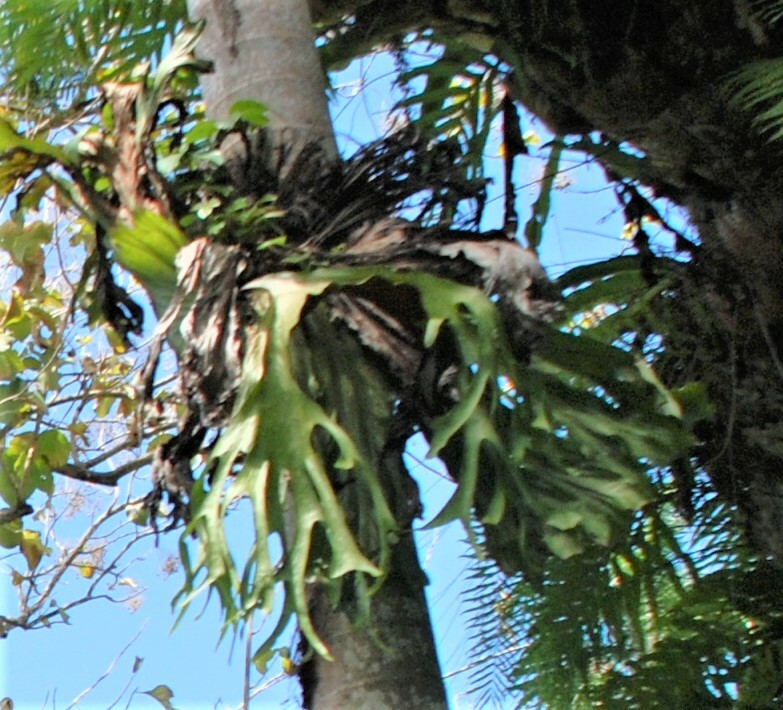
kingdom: Plantae
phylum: Tracheophyta
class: Polypodiopsida
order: Polypodiales
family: Polypodiaceae
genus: Platycerium
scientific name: Platycerium bifurcatum
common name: Elkhorn fern
